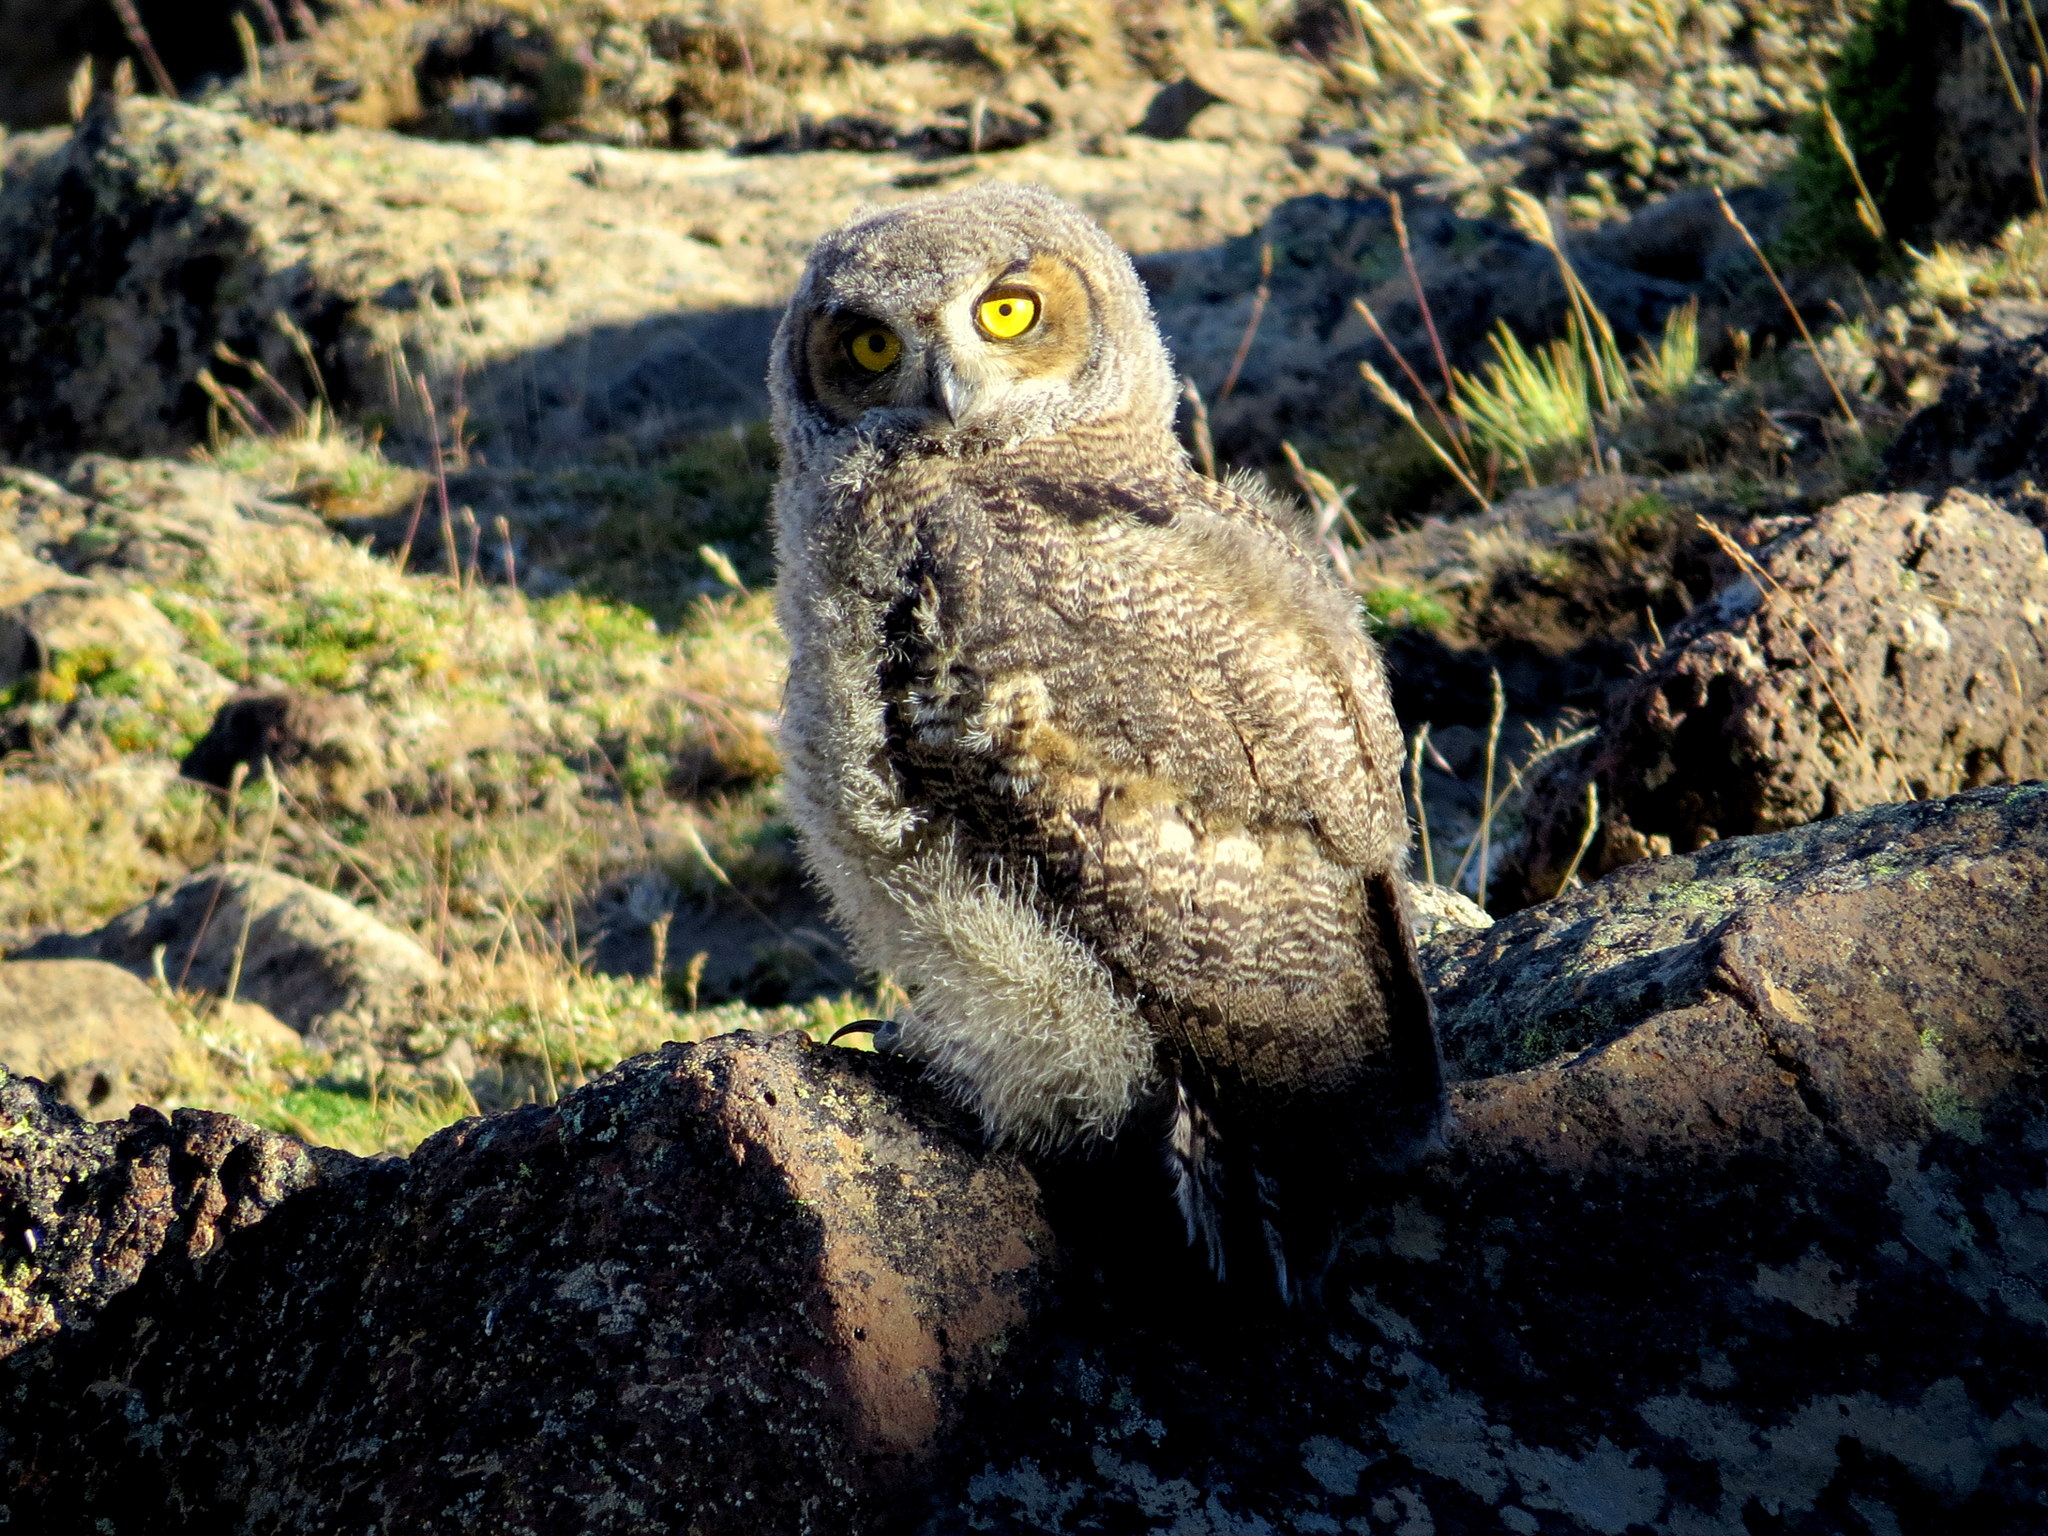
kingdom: Animalia
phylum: Chordata
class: Aves
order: Strigiformes
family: Strigidae
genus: Bubo
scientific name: Bubo magellanicus
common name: Lesser horned owl
